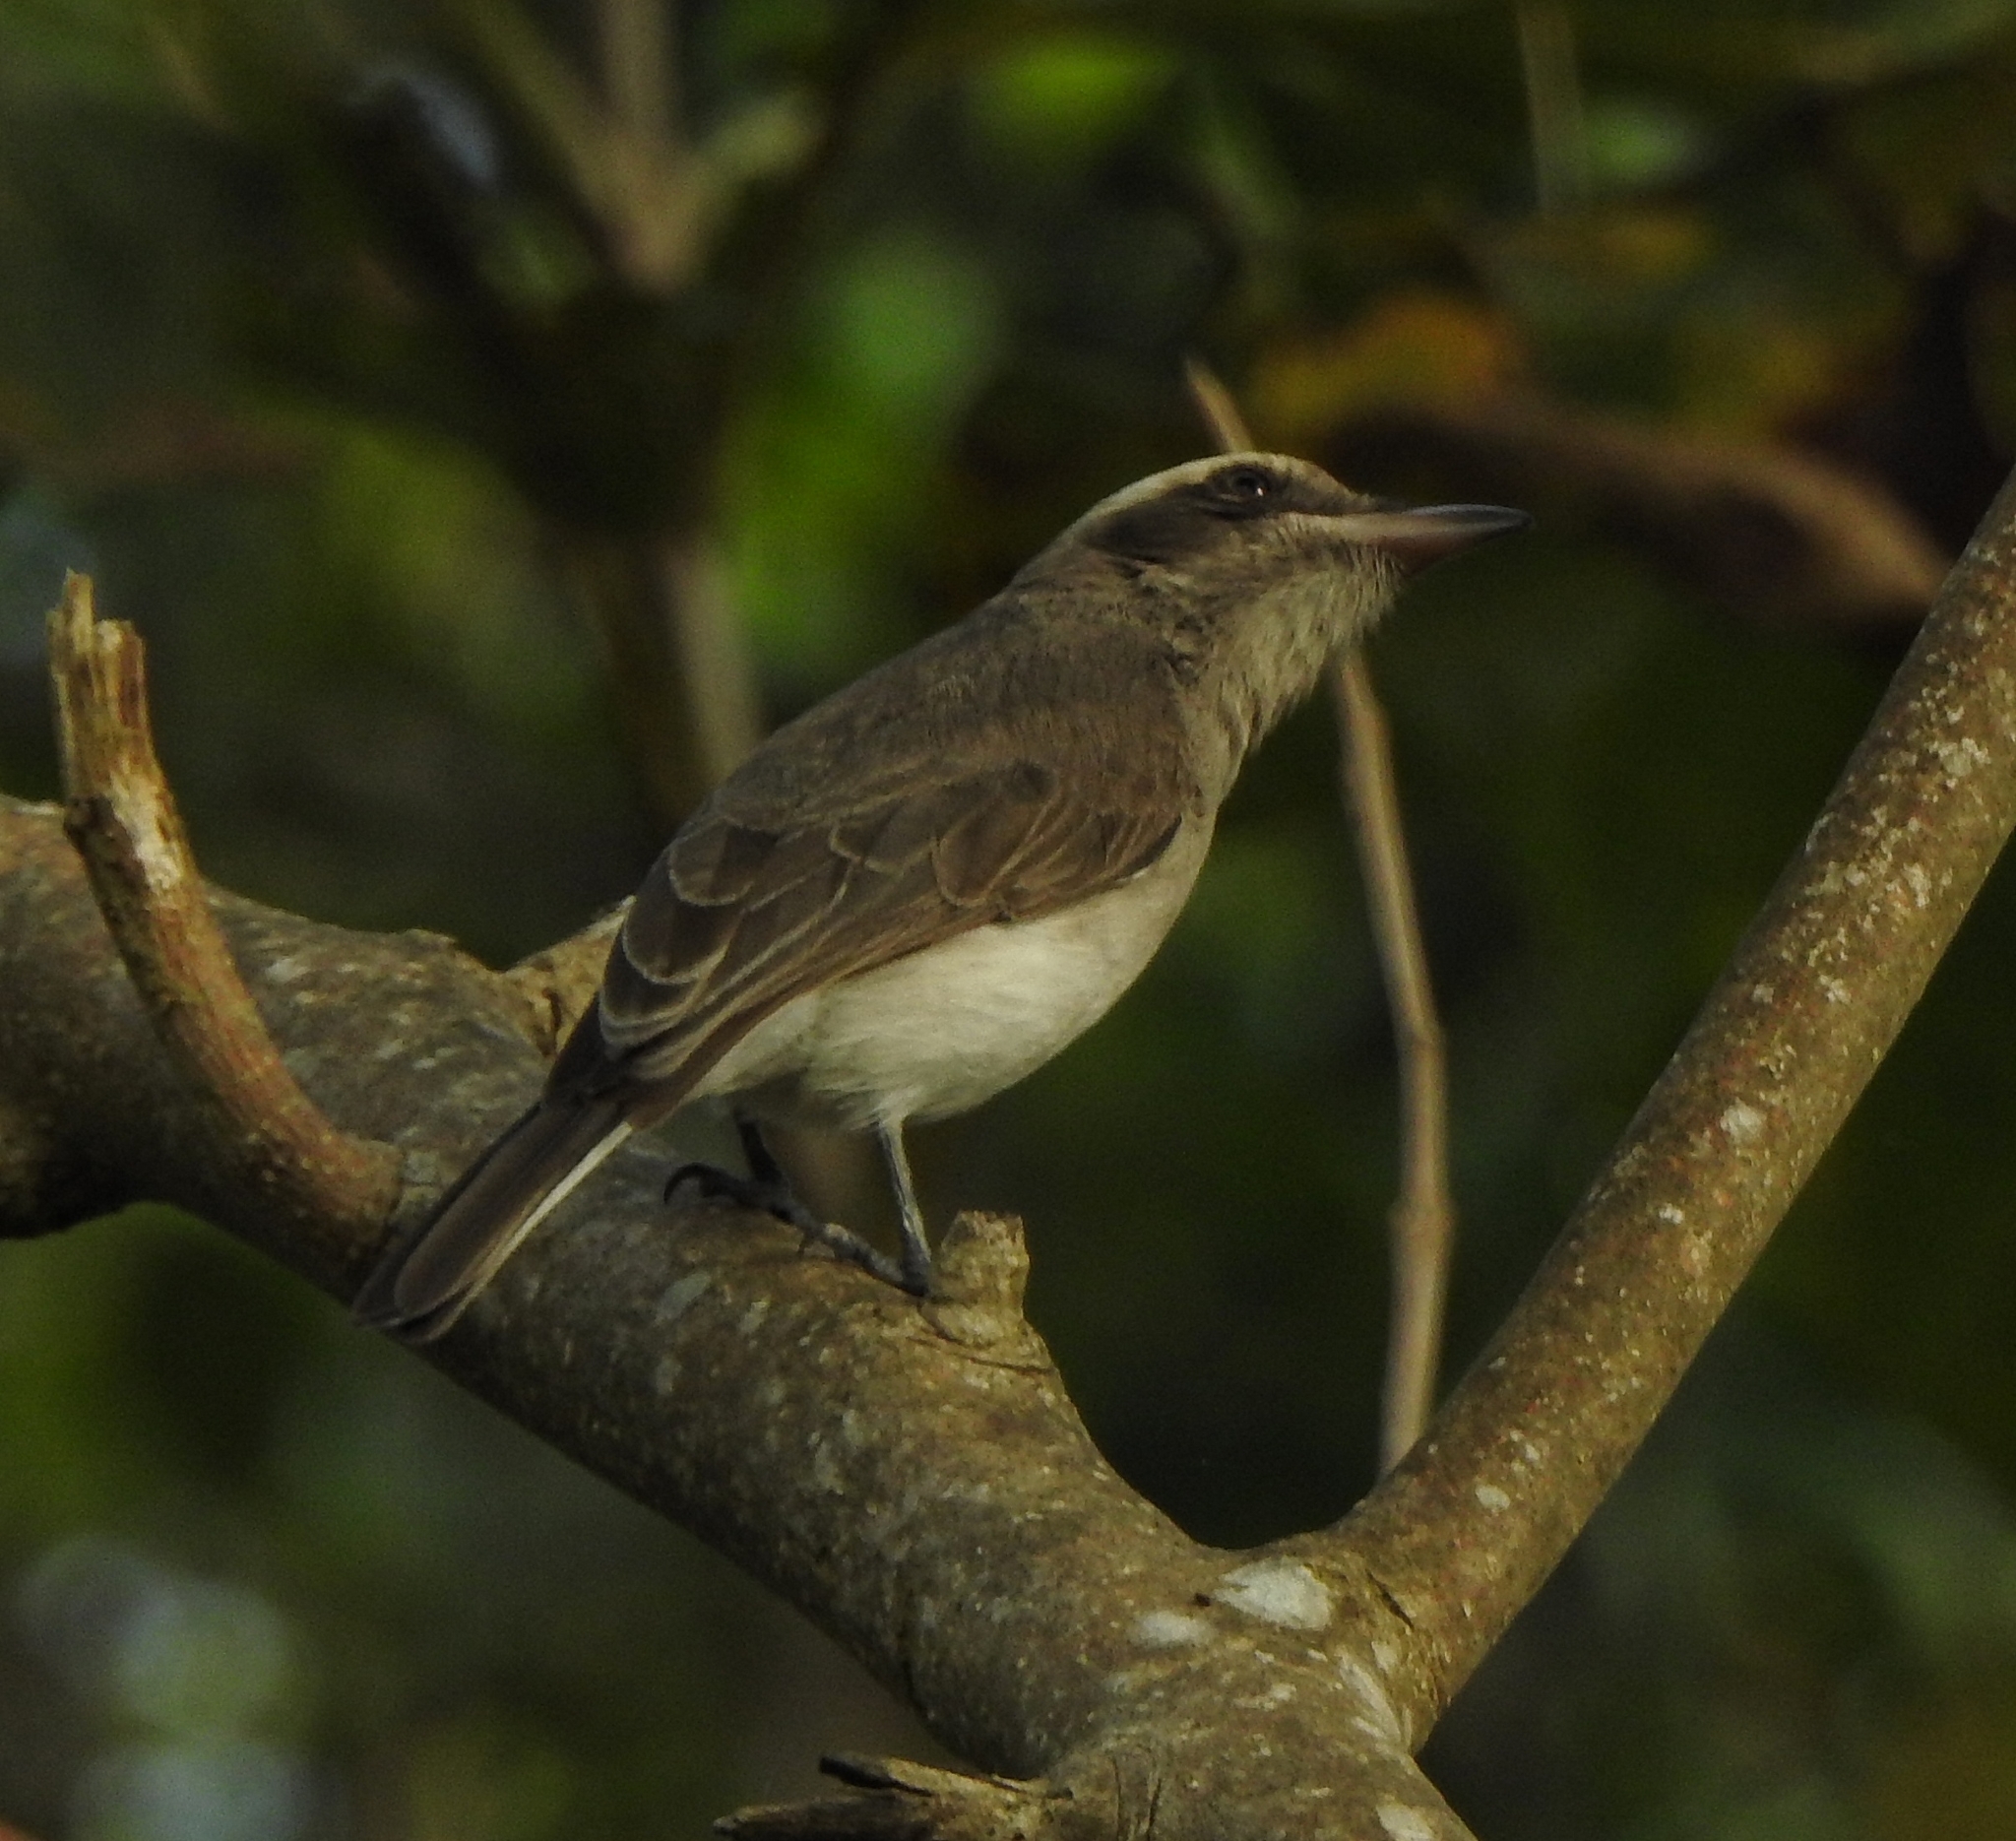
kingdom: Animalia
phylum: Chordata
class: Aves
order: Passeriformes
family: Tephrodornithidae
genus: Tephrodornis
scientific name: Tephrodornis pondicerianus
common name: Common woodshrike
